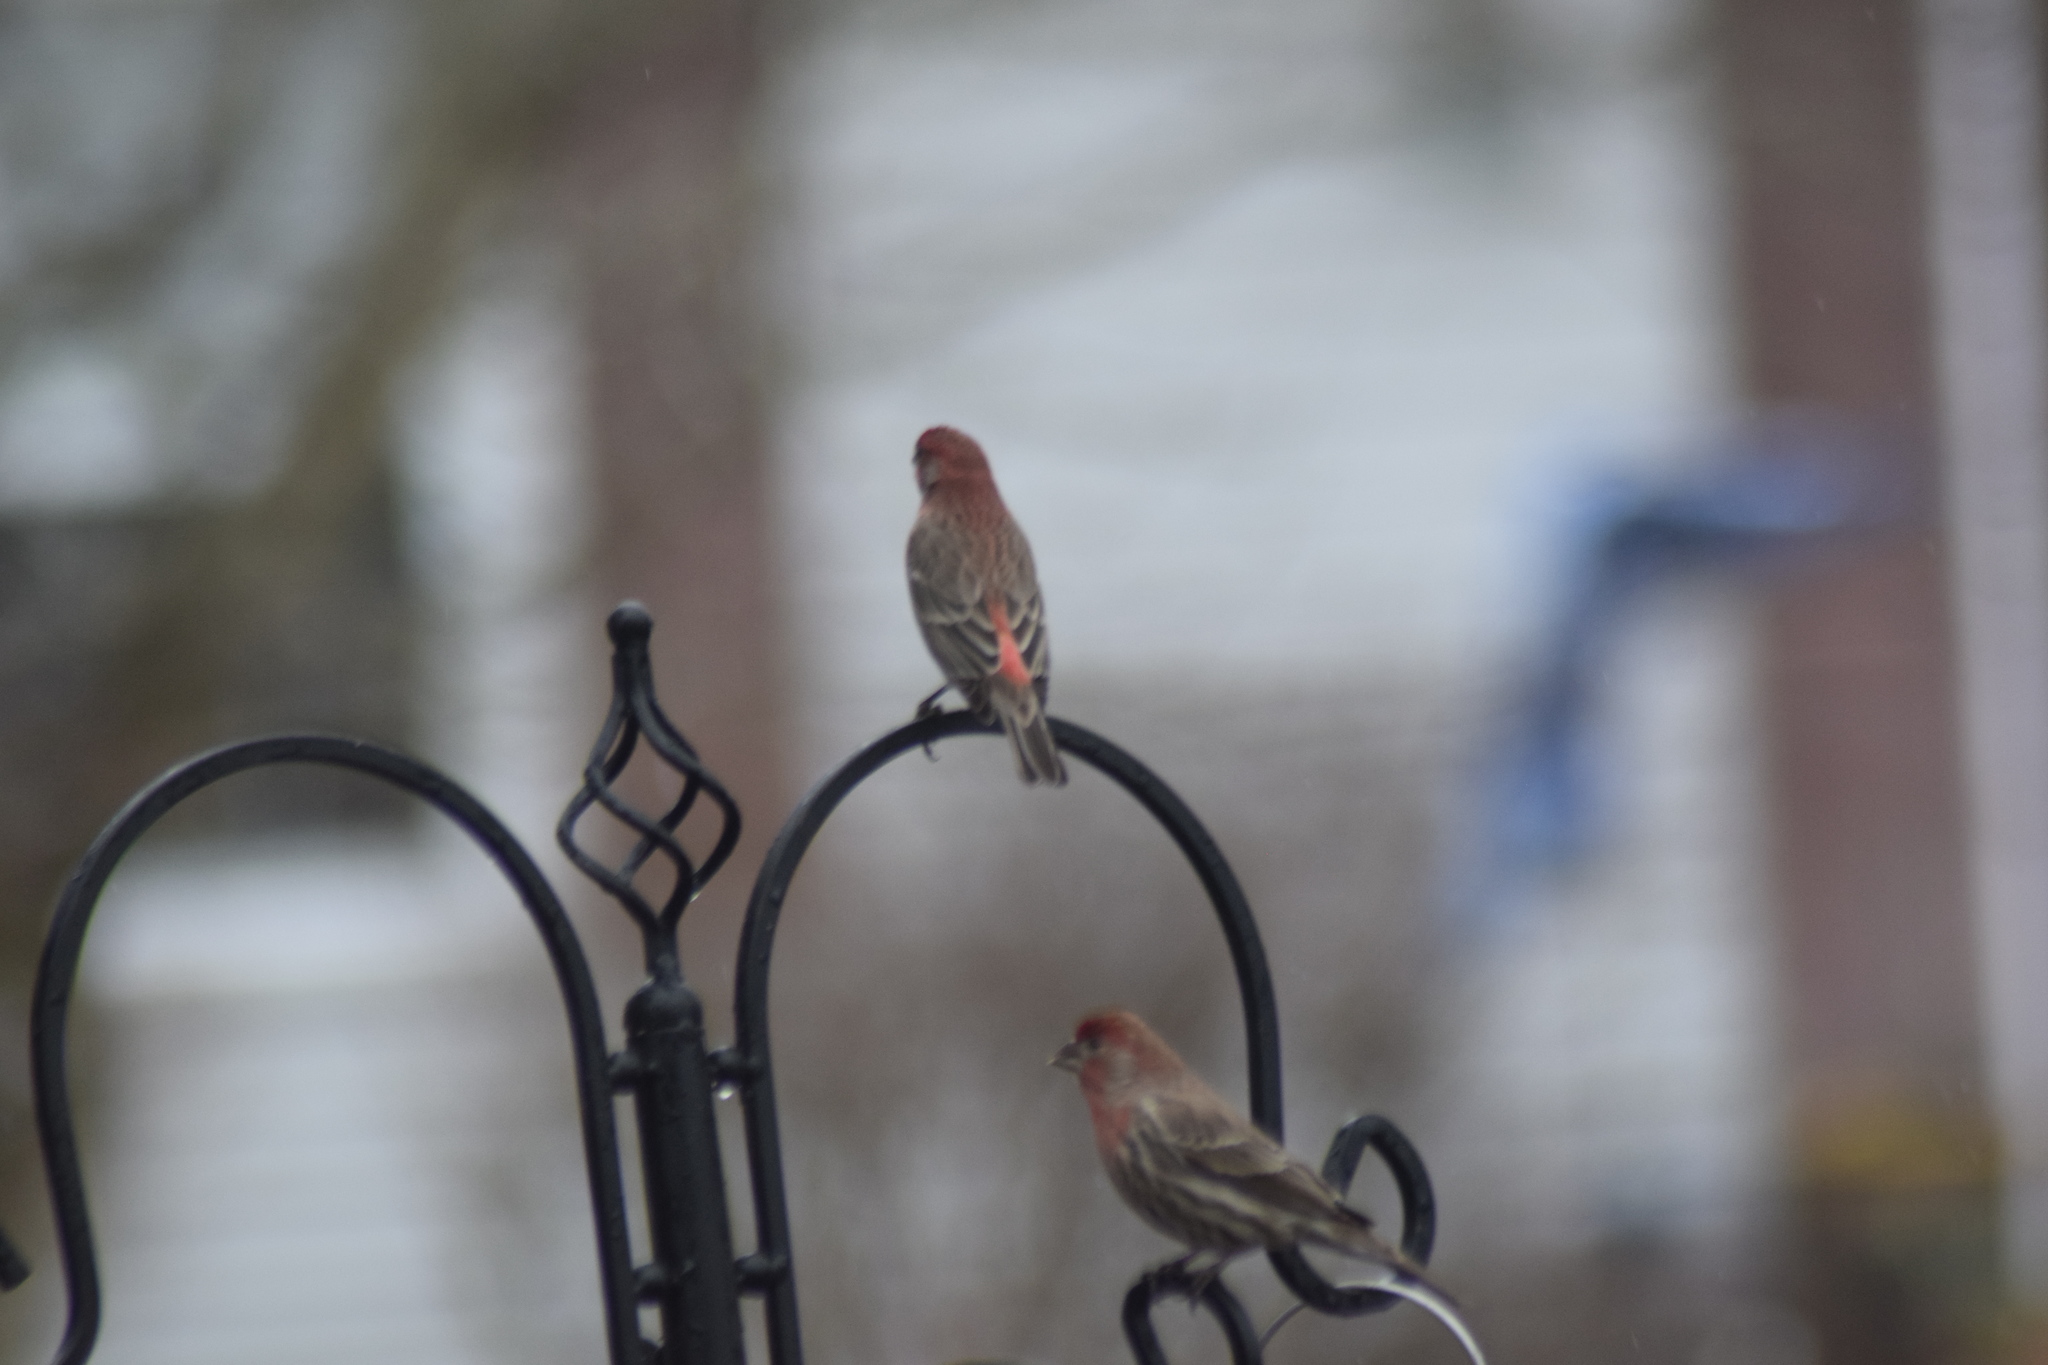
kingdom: Animalia
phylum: Chordata
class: Aves
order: Passeriformes
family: Fringillidae
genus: Haemorhous
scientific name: Haemorhous mexicanus
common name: House finch
